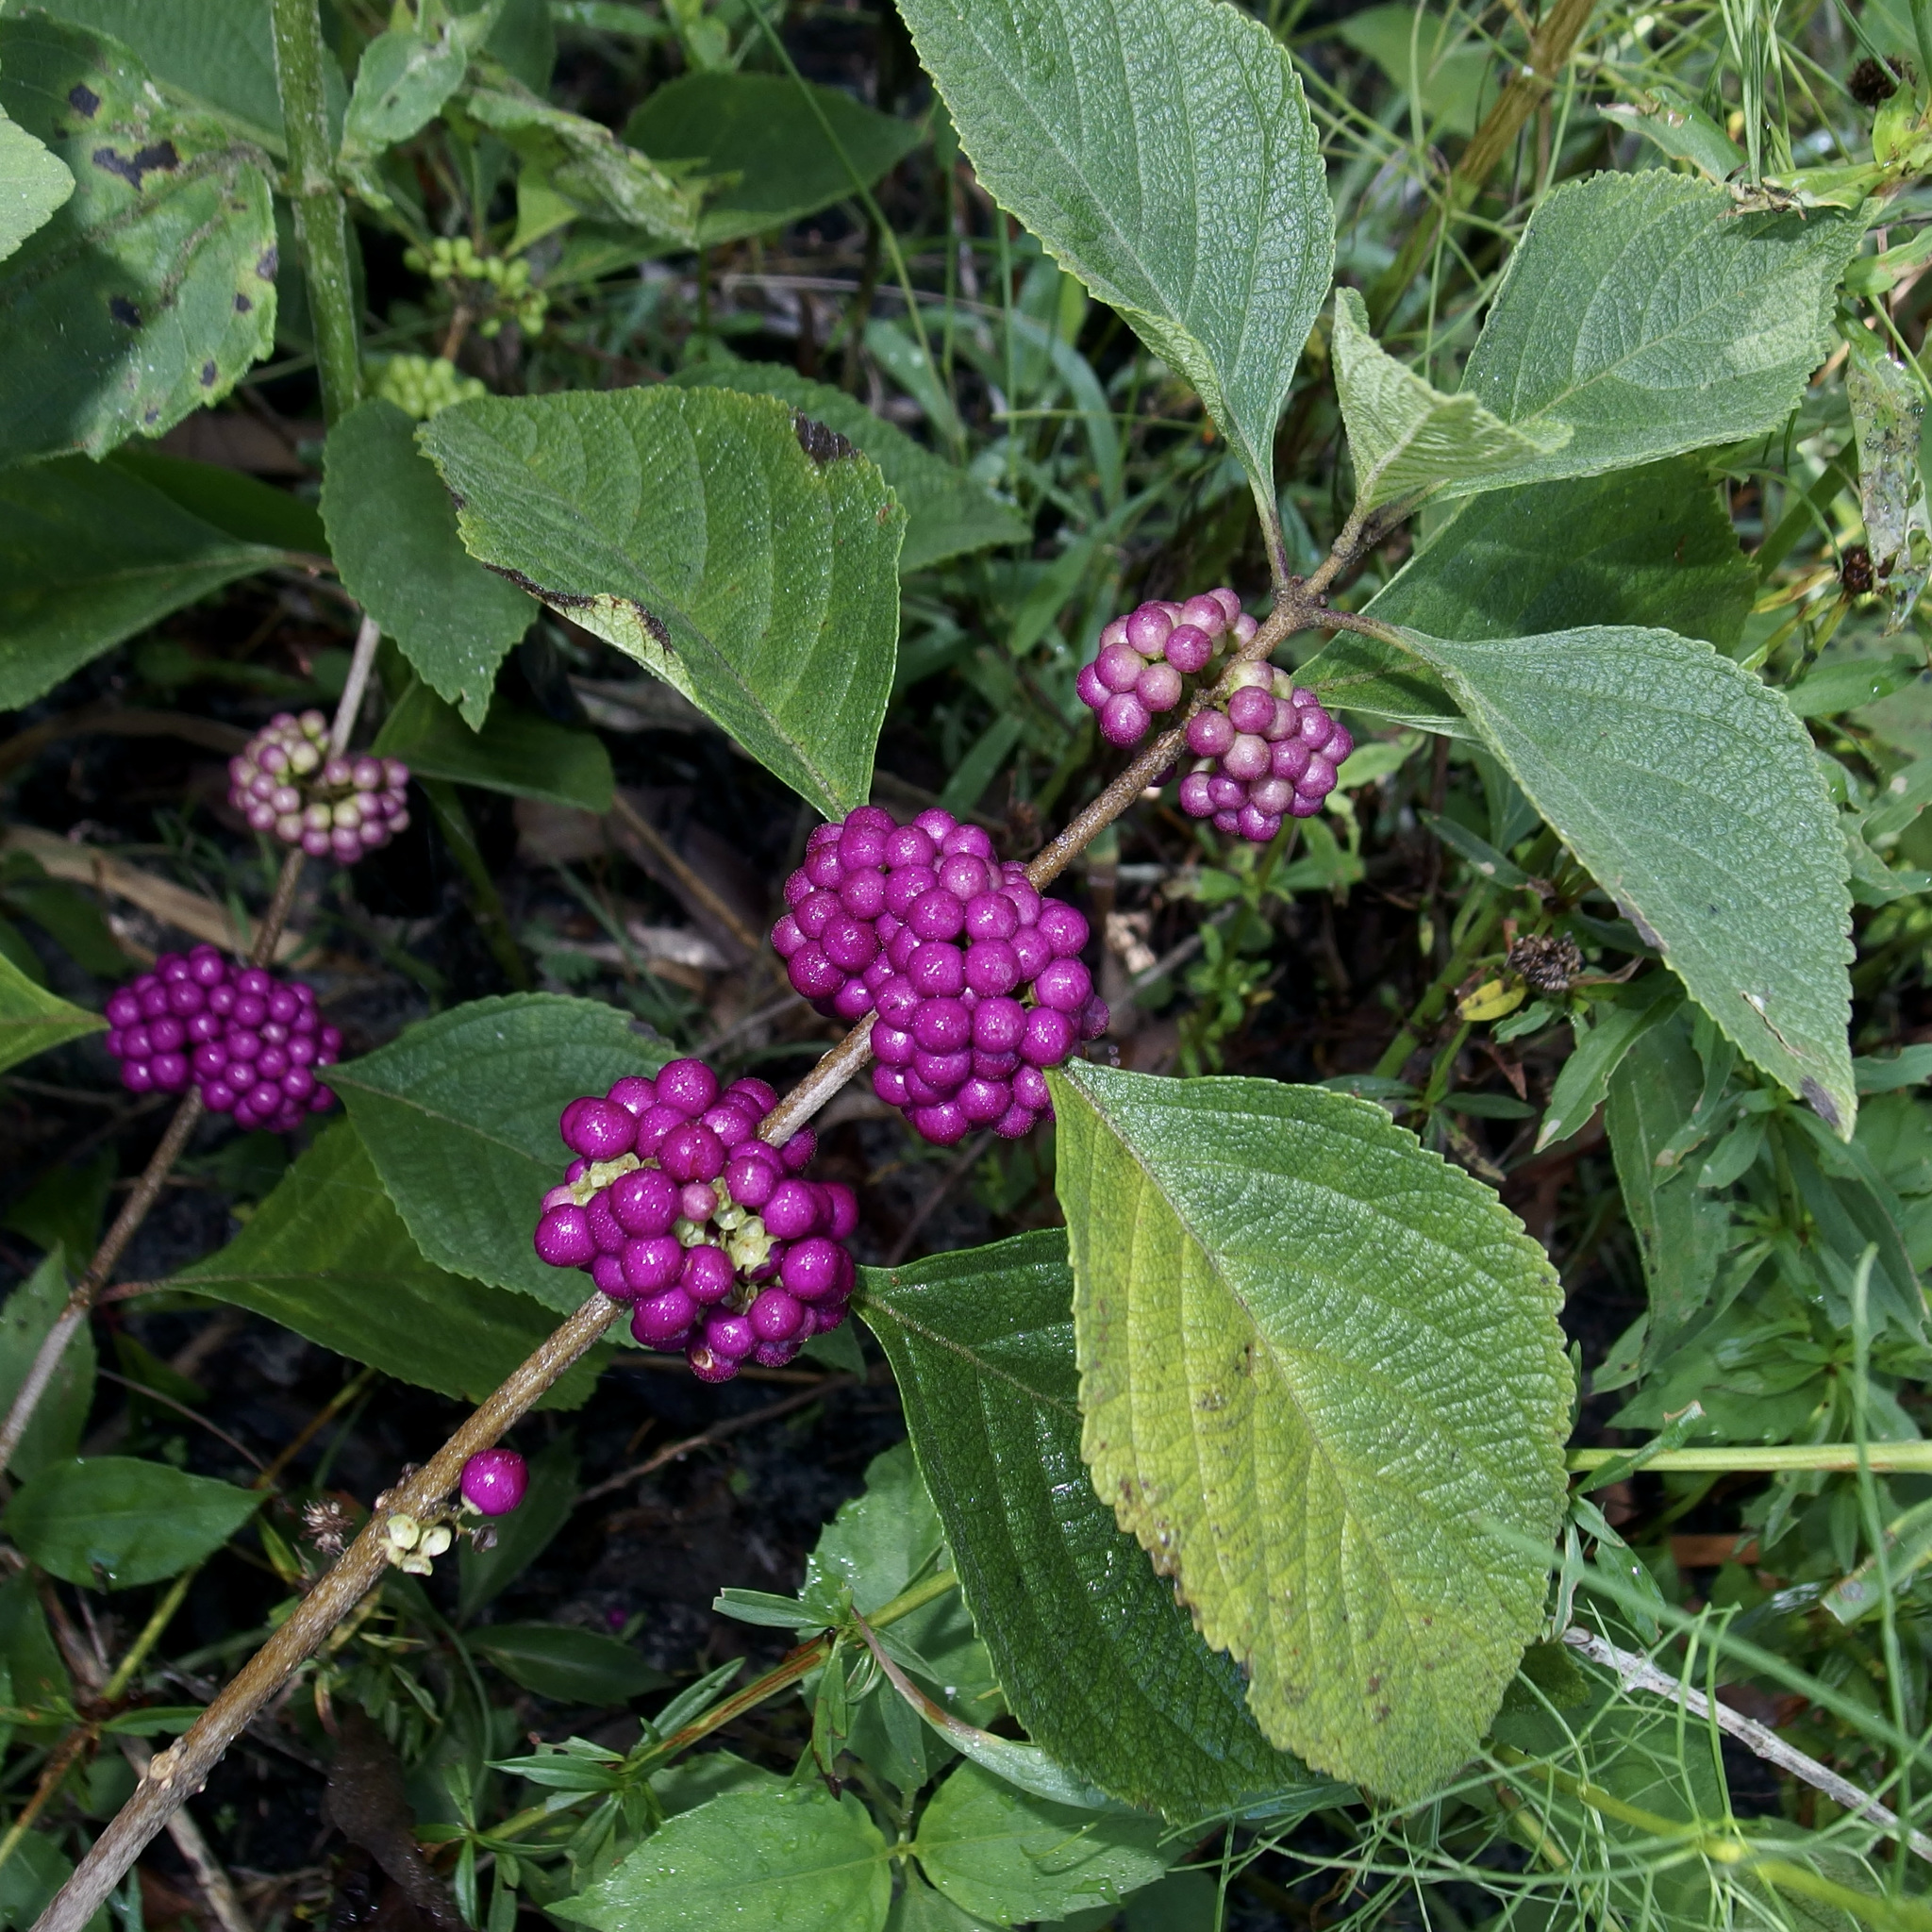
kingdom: Plantae
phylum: Tracheophyta
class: Magnoliopsida
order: Lamiales
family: Lamiaceae
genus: Callicarpa
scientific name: Callicarpa americana
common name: American beautyberry
